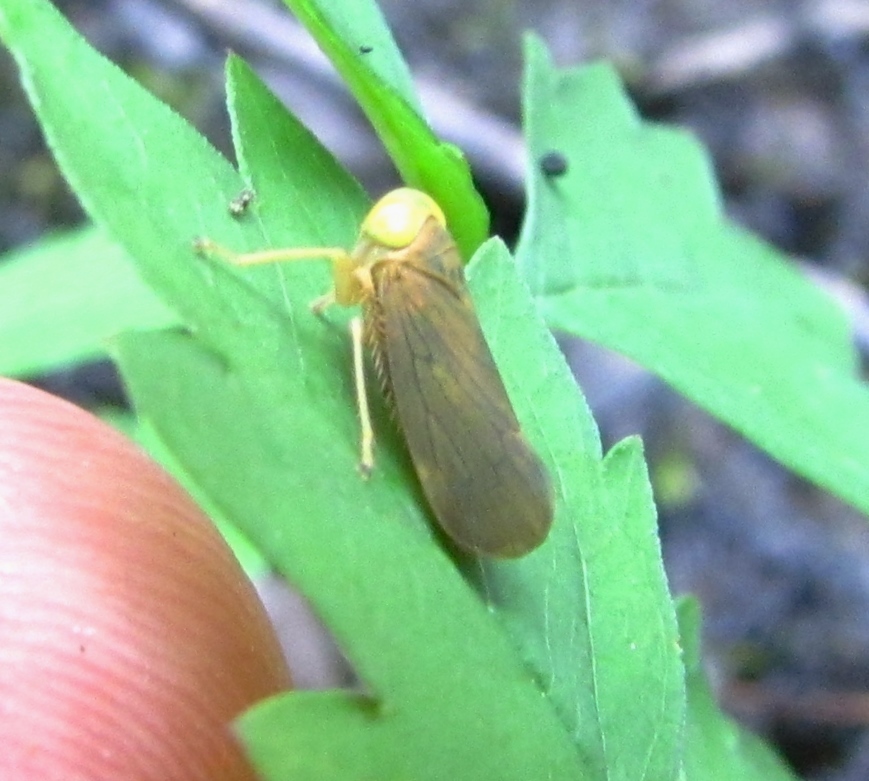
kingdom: Animalia
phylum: Arthropoda
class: Insecta
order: Hemiptera
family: Cicadellidae
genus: Jikradia
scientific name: Jikradia olitoria
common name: Coppery leafhopper
